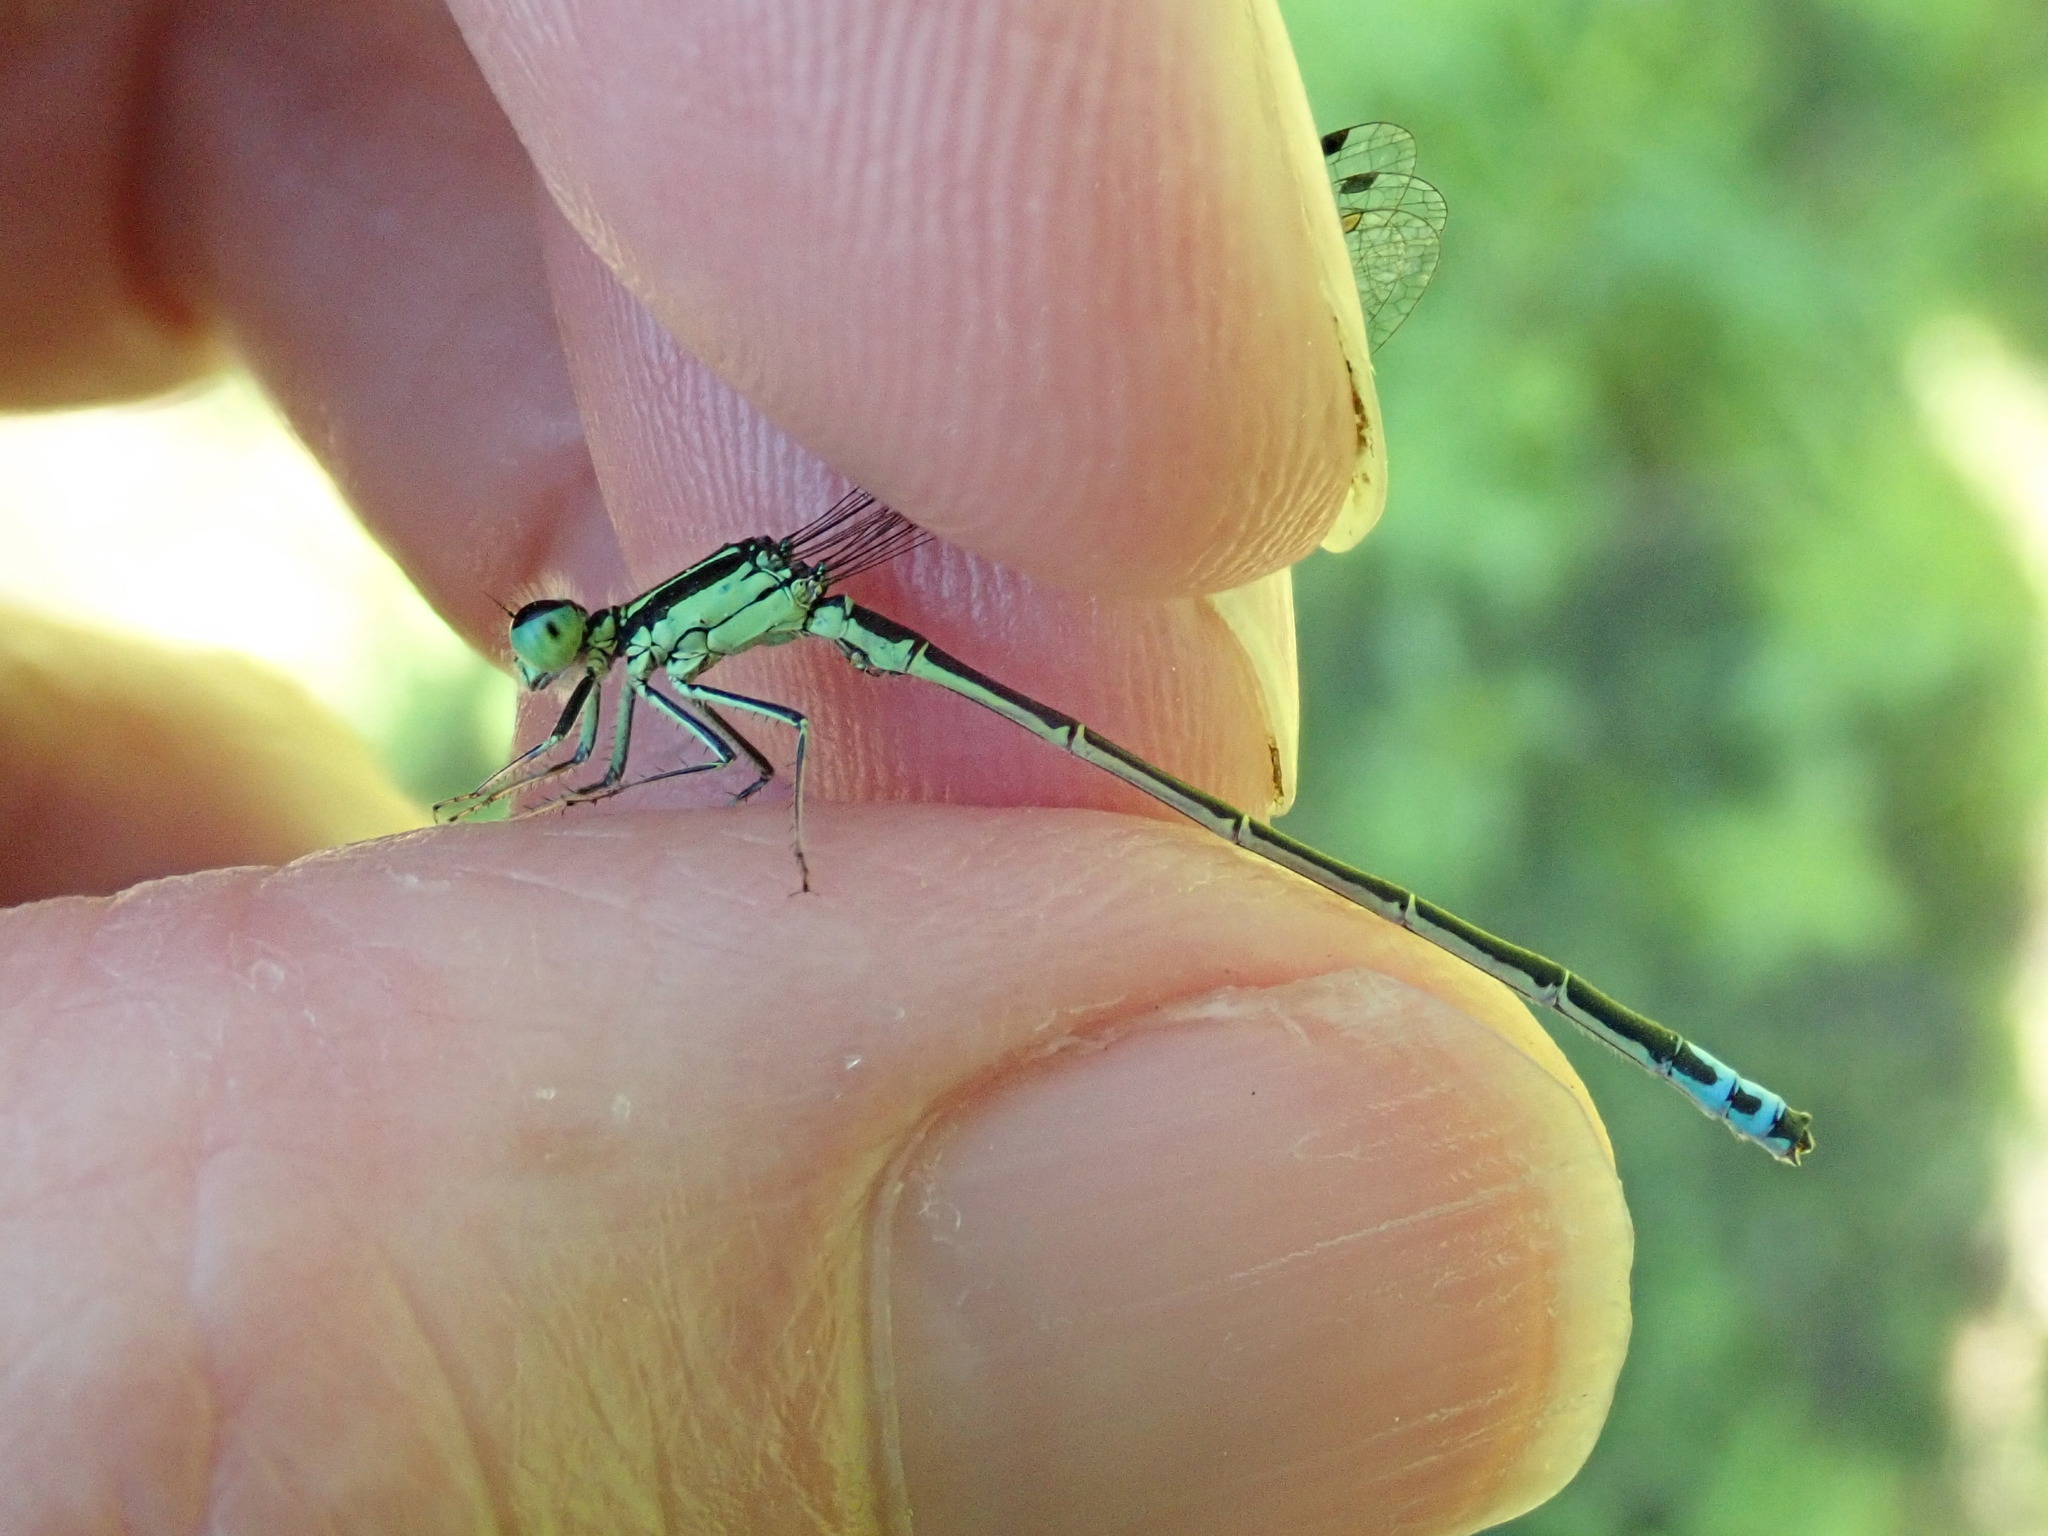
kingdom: Animalia
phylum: Arthropoda
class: Insecta
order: Odonata
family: Coenagrionidae
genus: Ischnura
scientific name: Ischnura verticalis
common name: Eastern forktail
